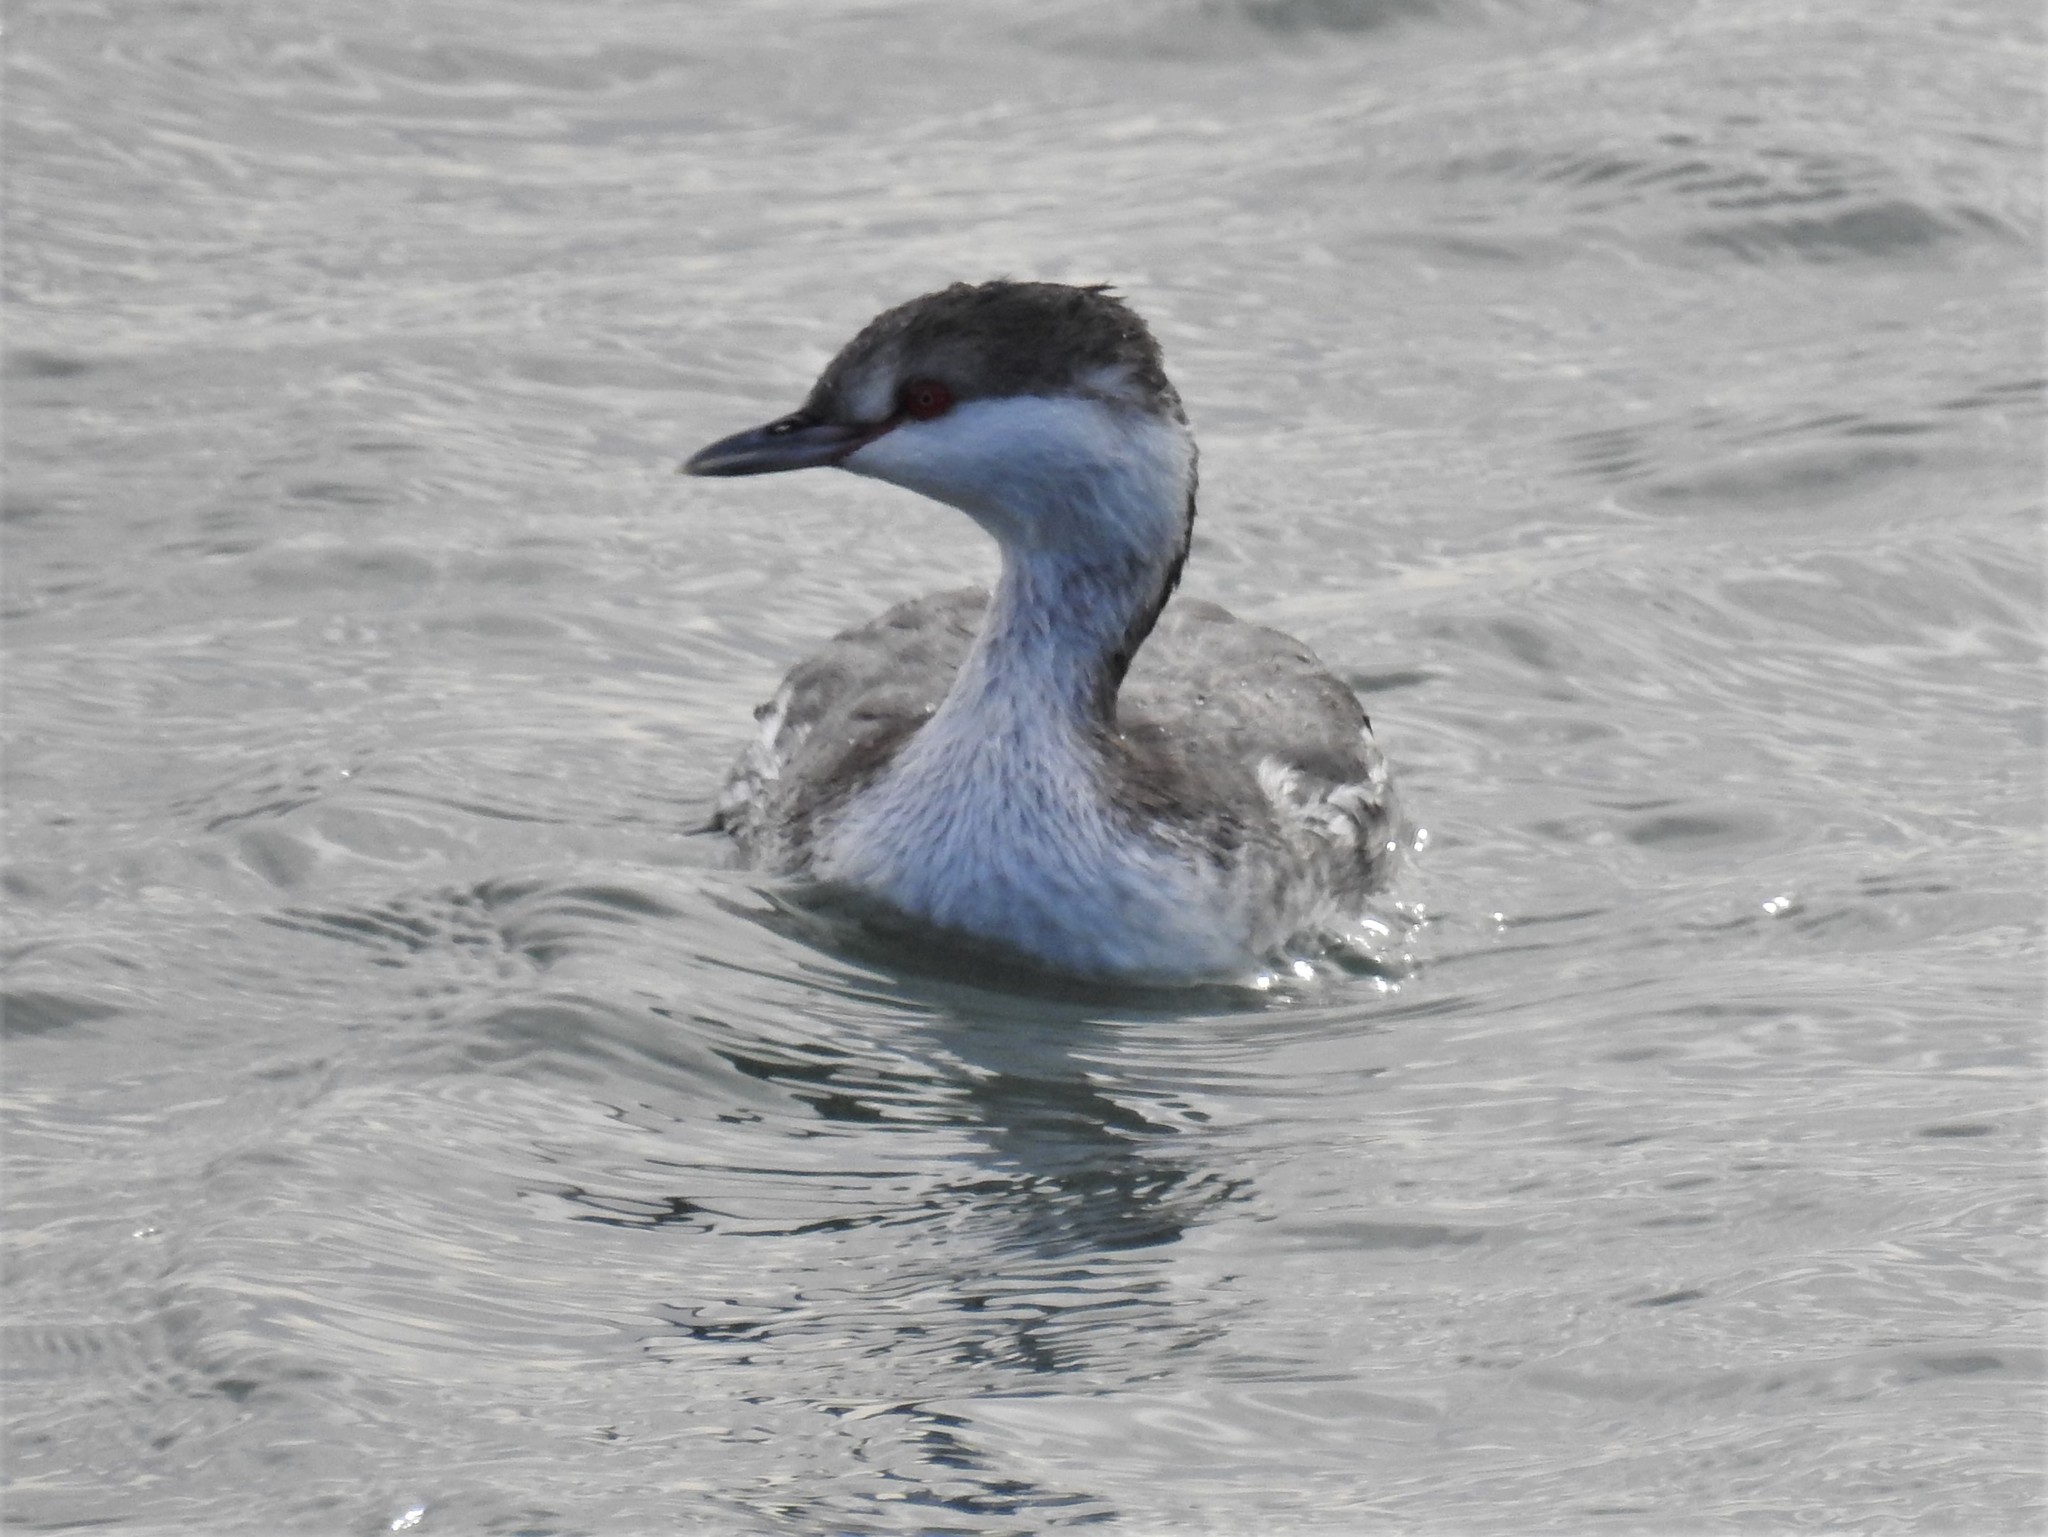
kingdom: Animalia
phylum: Chordata
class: Aves
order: Podicipediformes
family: Podicipedidae
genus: Podiceps
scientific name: Podiceps auritus
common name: Horned grebe
